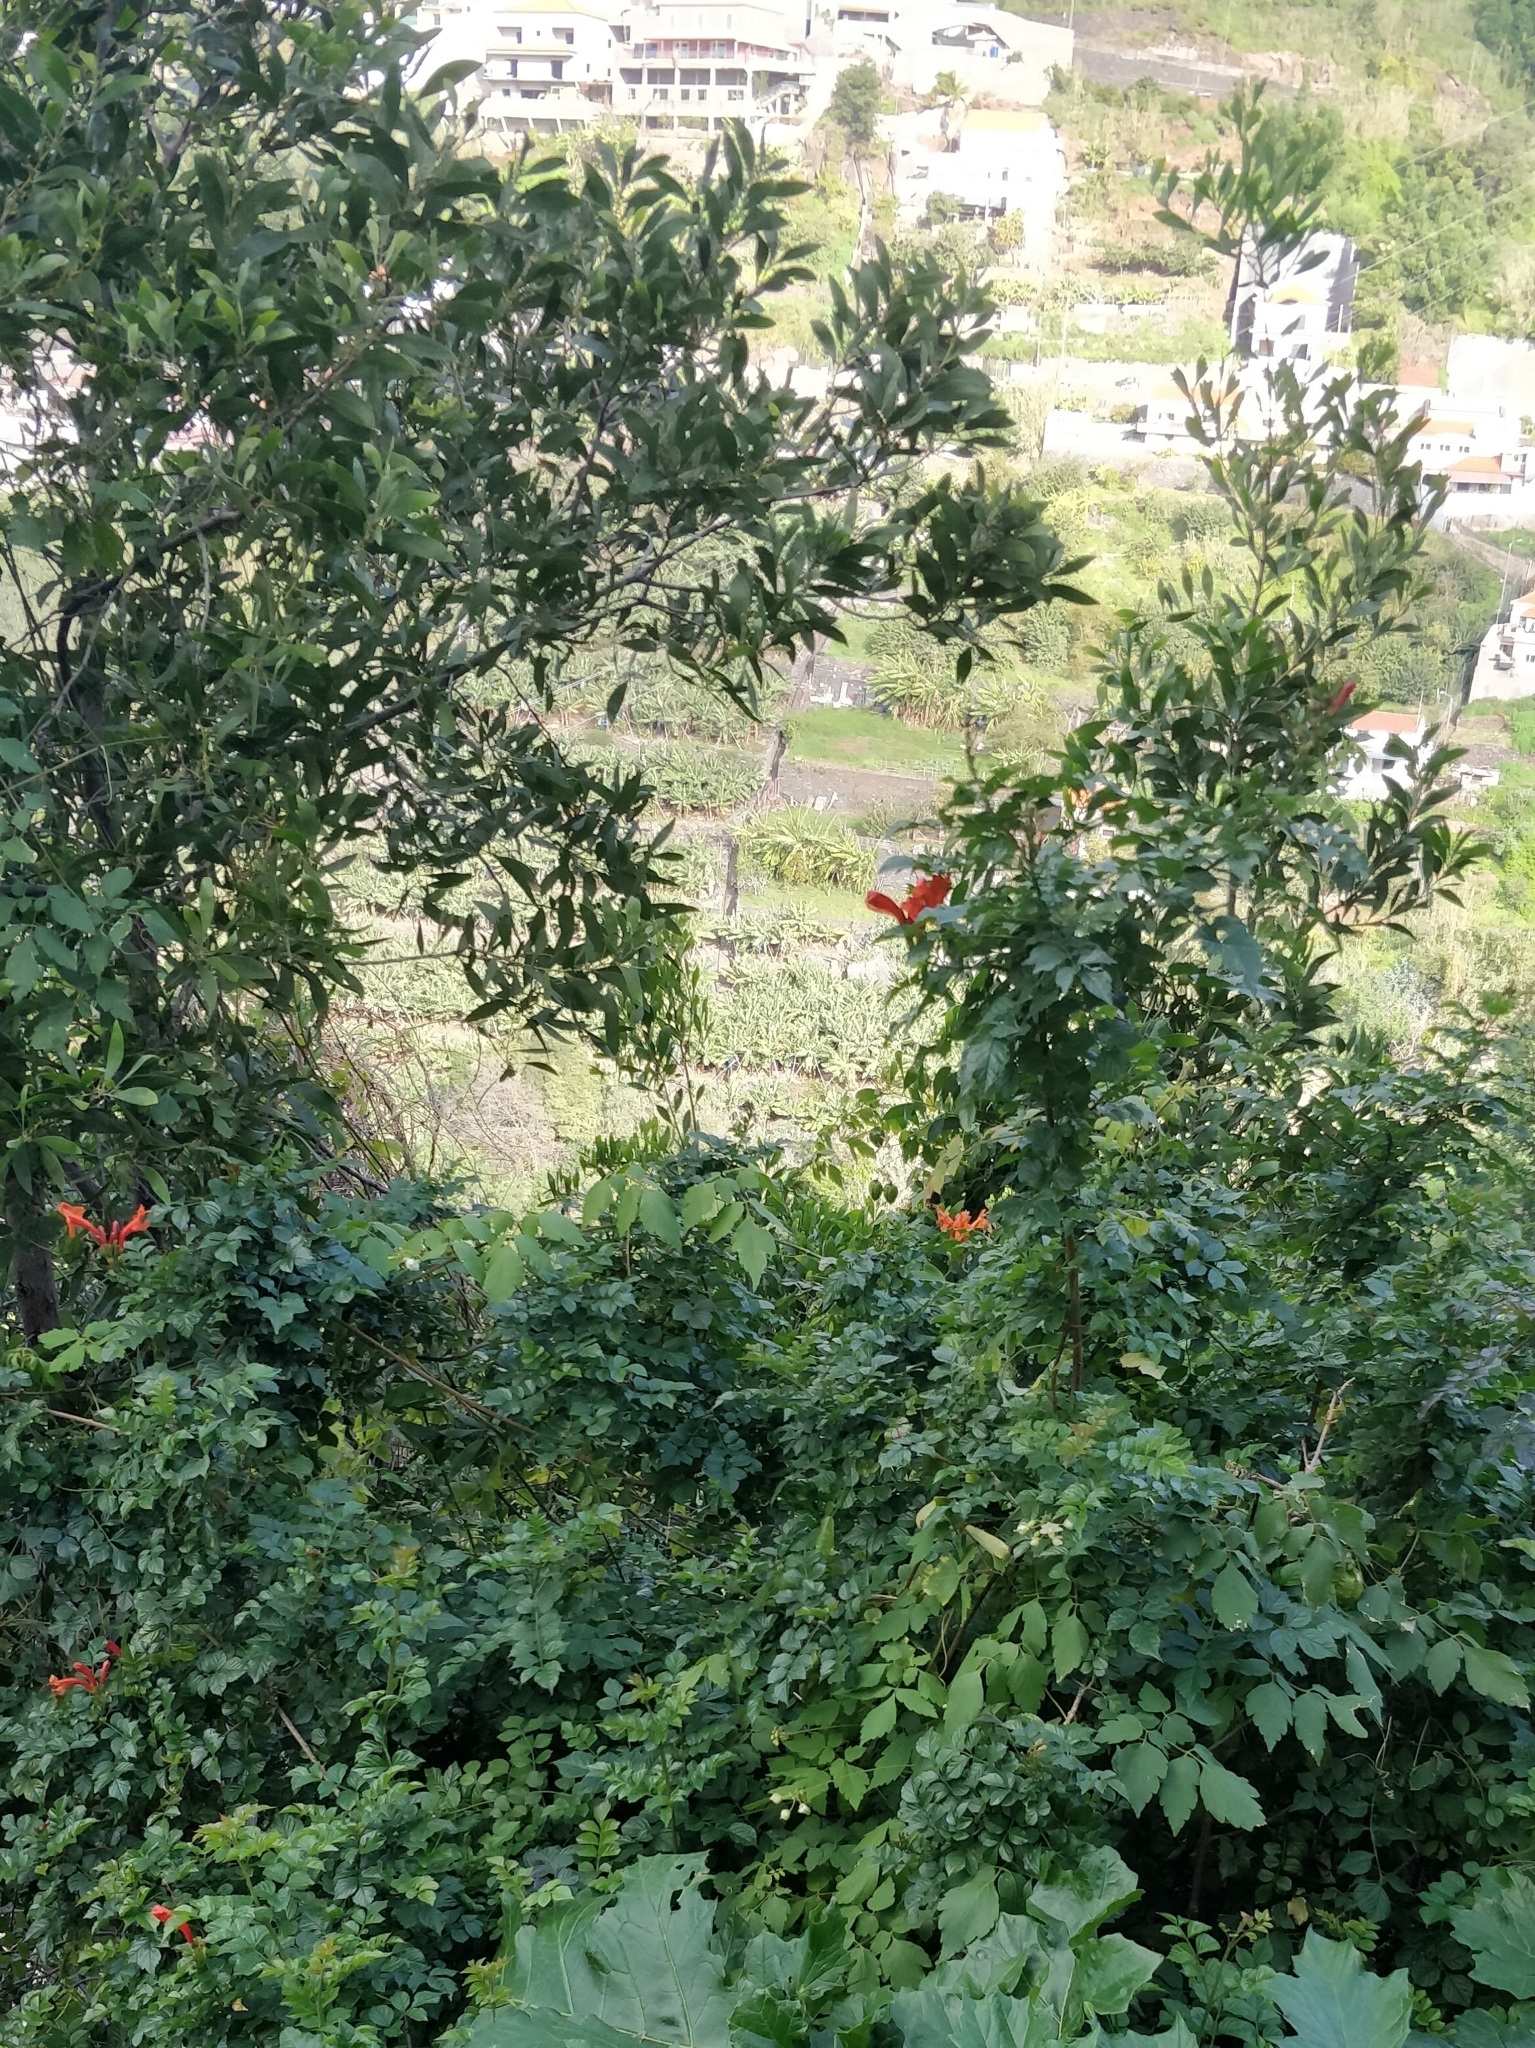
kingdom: Plantae
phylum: Tracheophyta
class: Magnoliopsida
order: Lamiales
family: Bignoniaceae
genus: Tecomaria
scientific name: Tecomaria capensis
